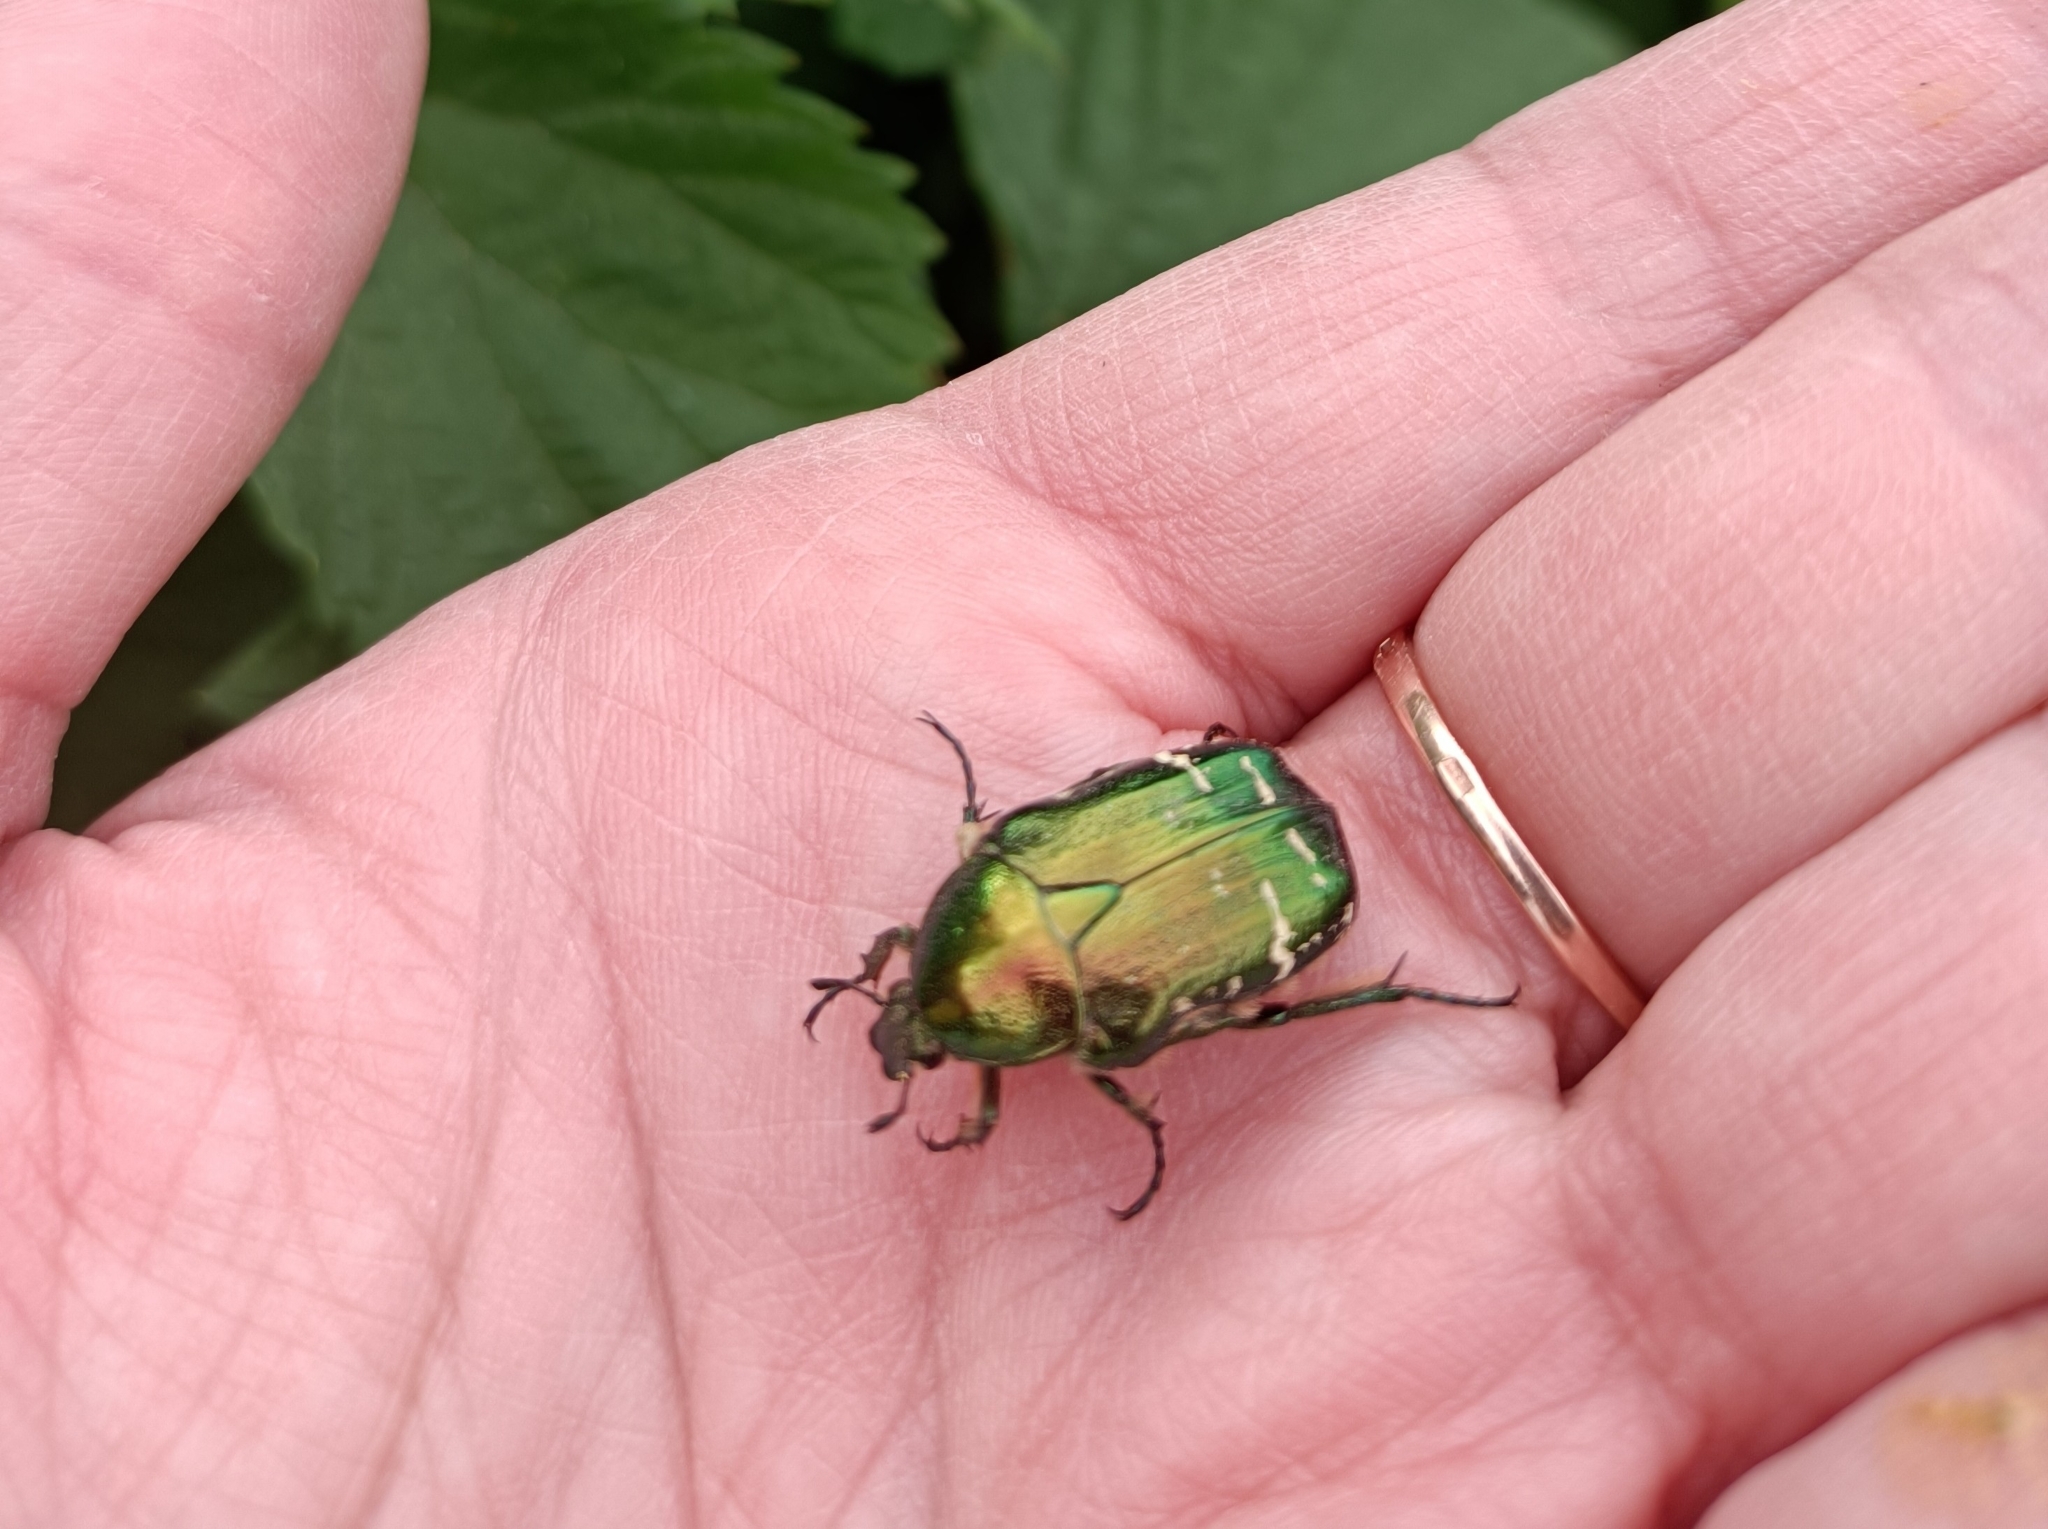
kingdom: Animalia
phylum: Arthropoda
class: Insecta
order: Coleoptera
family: Scarabaeidae
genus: Cetonia
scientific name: Cetonia aurata
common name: Rose chafer
